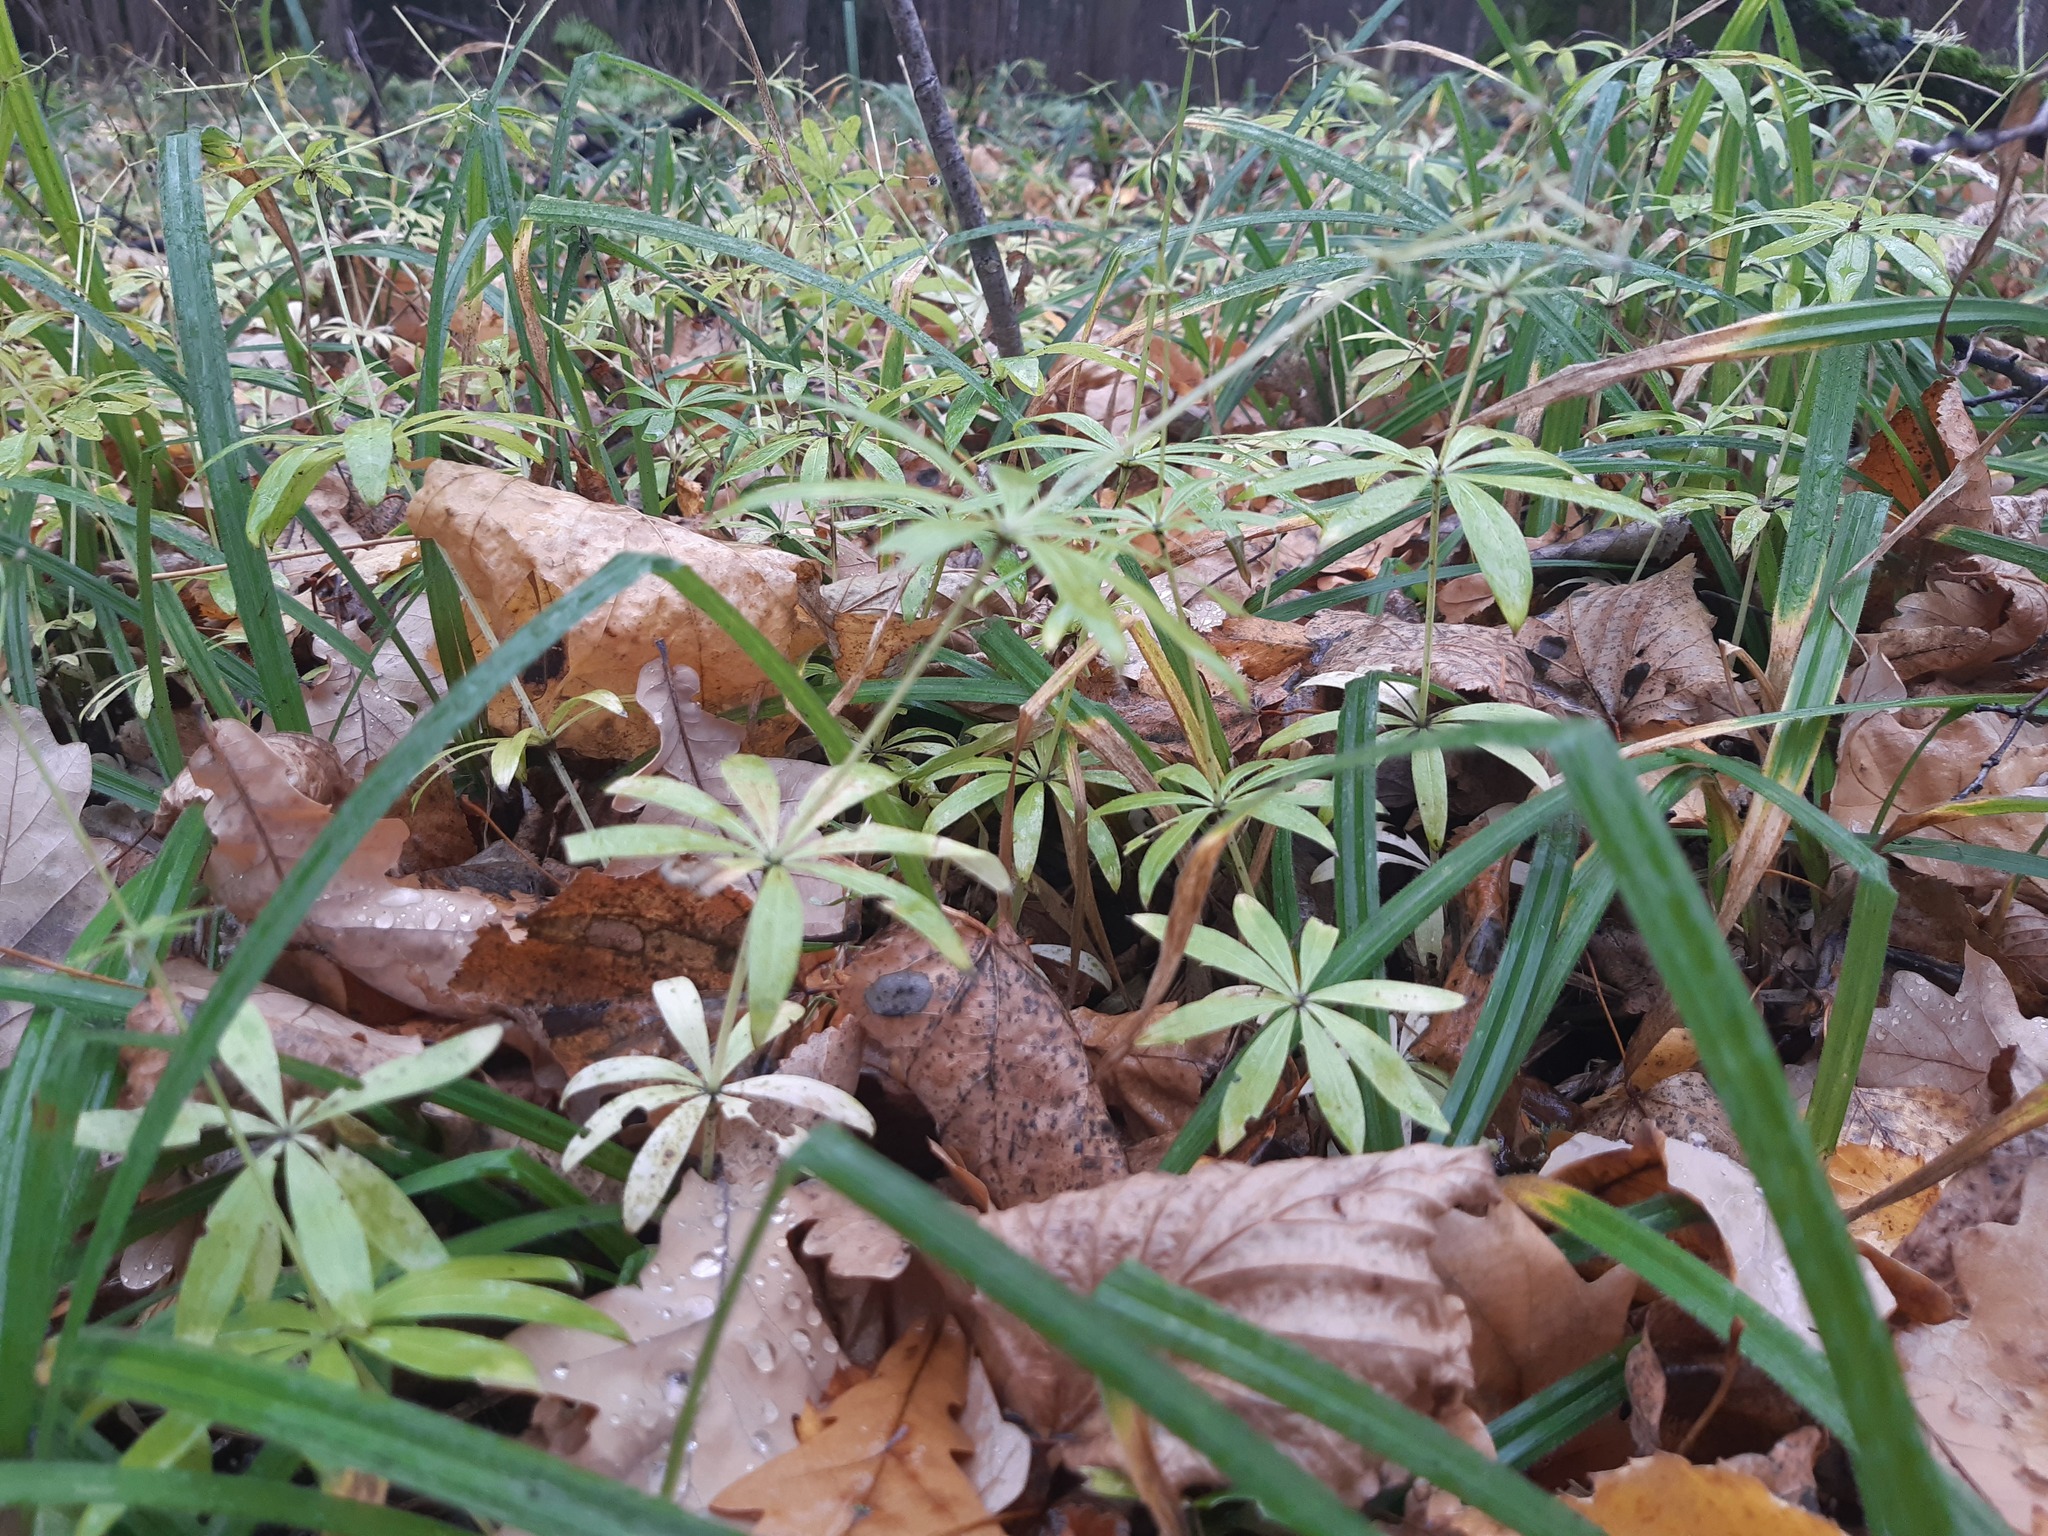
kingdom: Plantae
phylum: Tracheophyta
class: Magnoliopsida
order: Gentianales
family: Rubiaceae
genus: Galium
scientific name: Galium odoratum
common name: Sweet woodruff
